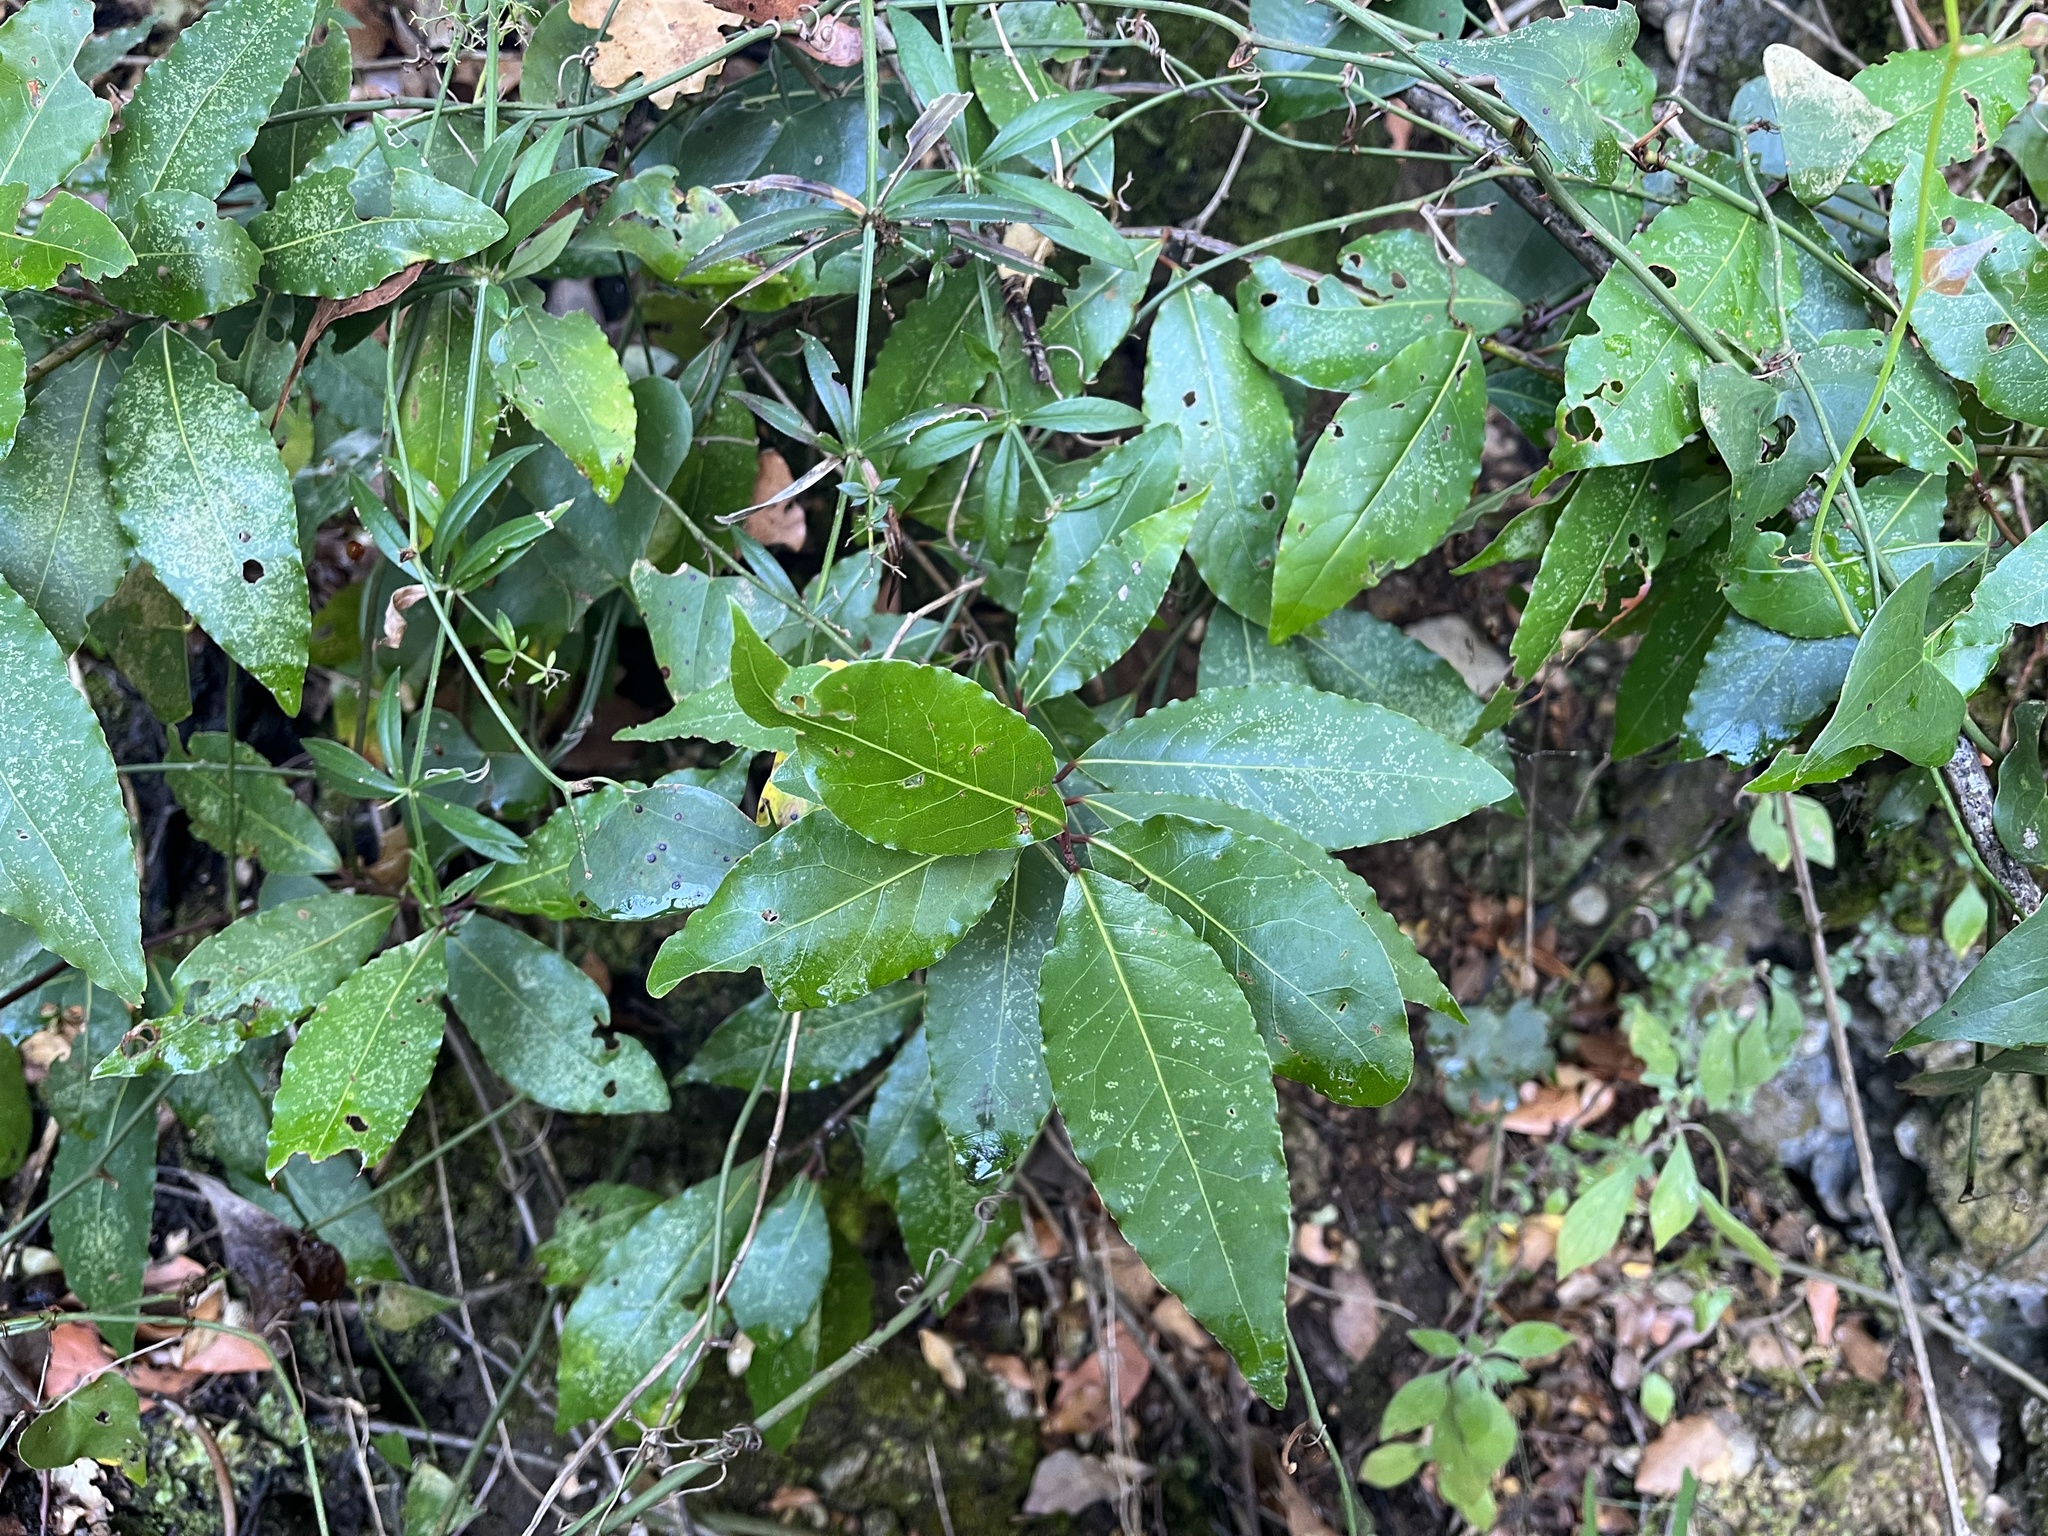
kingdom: Plantae
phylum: Tracheophyta
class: Magnoliopsida
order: Laurales
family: Lauraceae
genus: Laurus
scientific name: Laurus nobilis
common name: Bay
